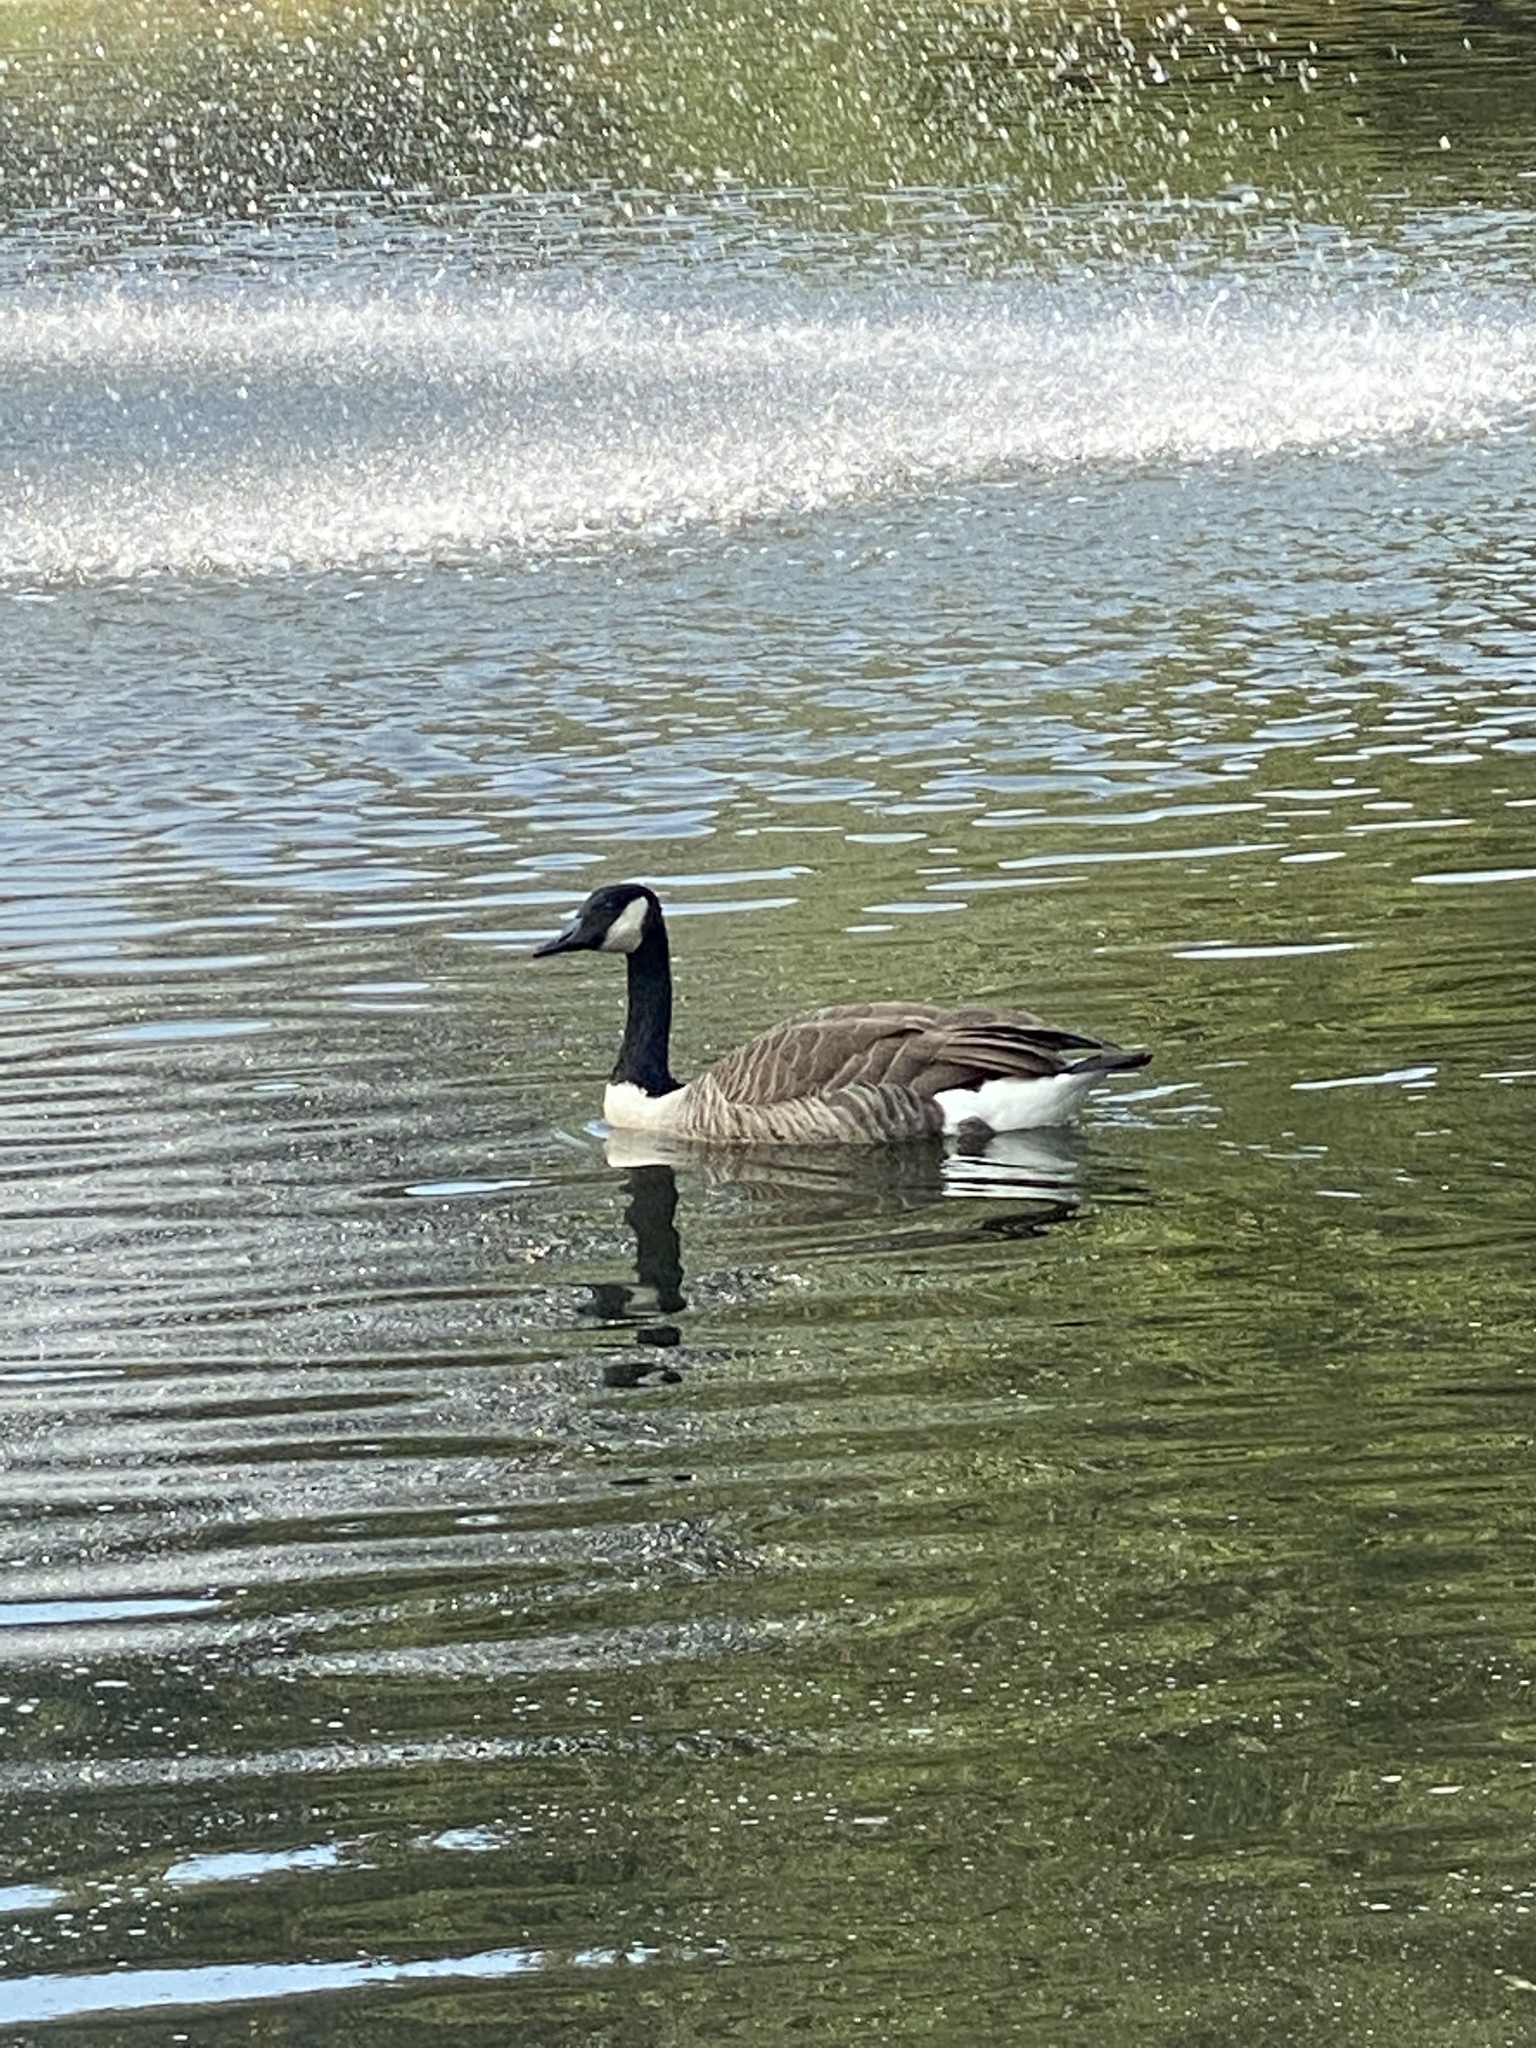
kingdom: Animalia
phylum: Chordata
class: Aves
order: Anseriformes
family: Anatidae
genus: Branta
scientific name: Branta canadensis
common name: Canada goose
